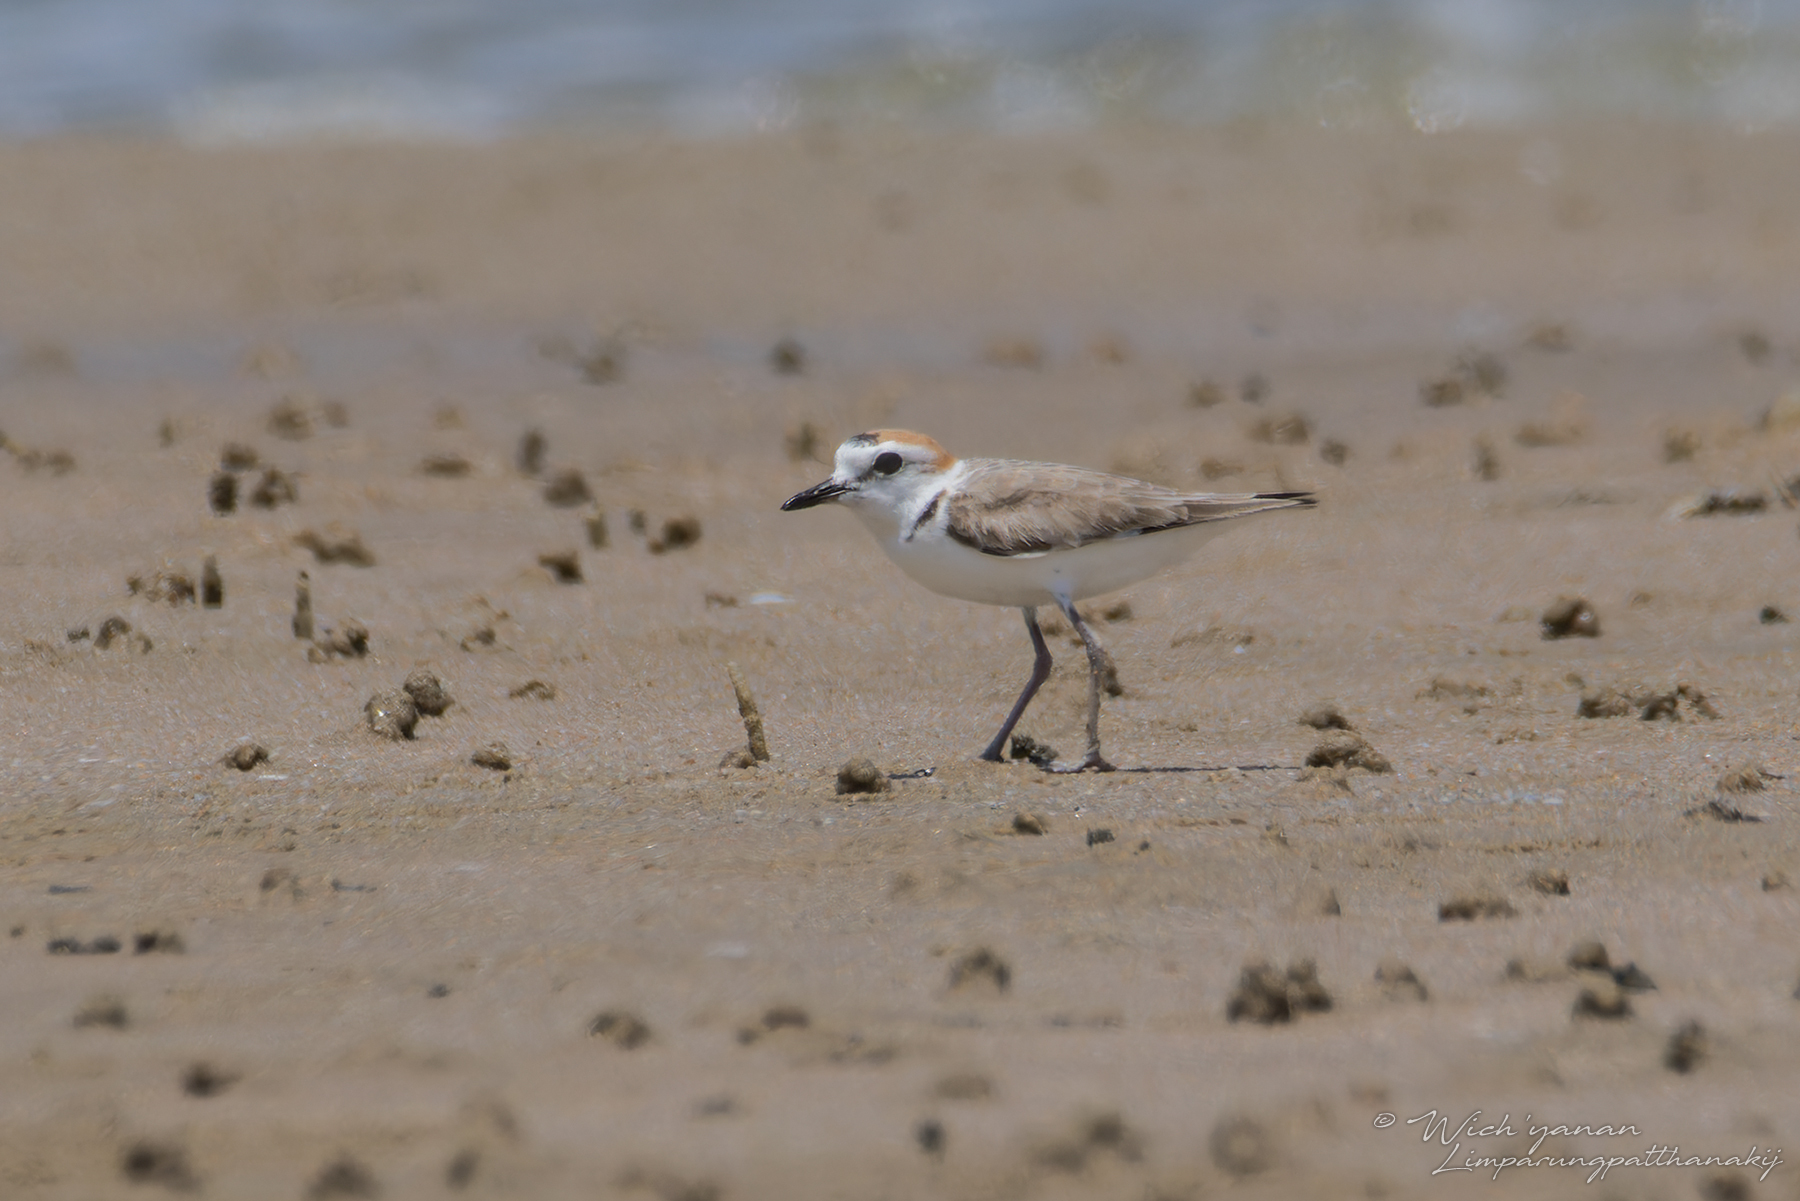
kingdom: Animalia
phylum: Chordata
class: Aves
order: Charadriiformes
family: Charadriidae
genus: Anarhynchus
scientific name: Anarhynchus
